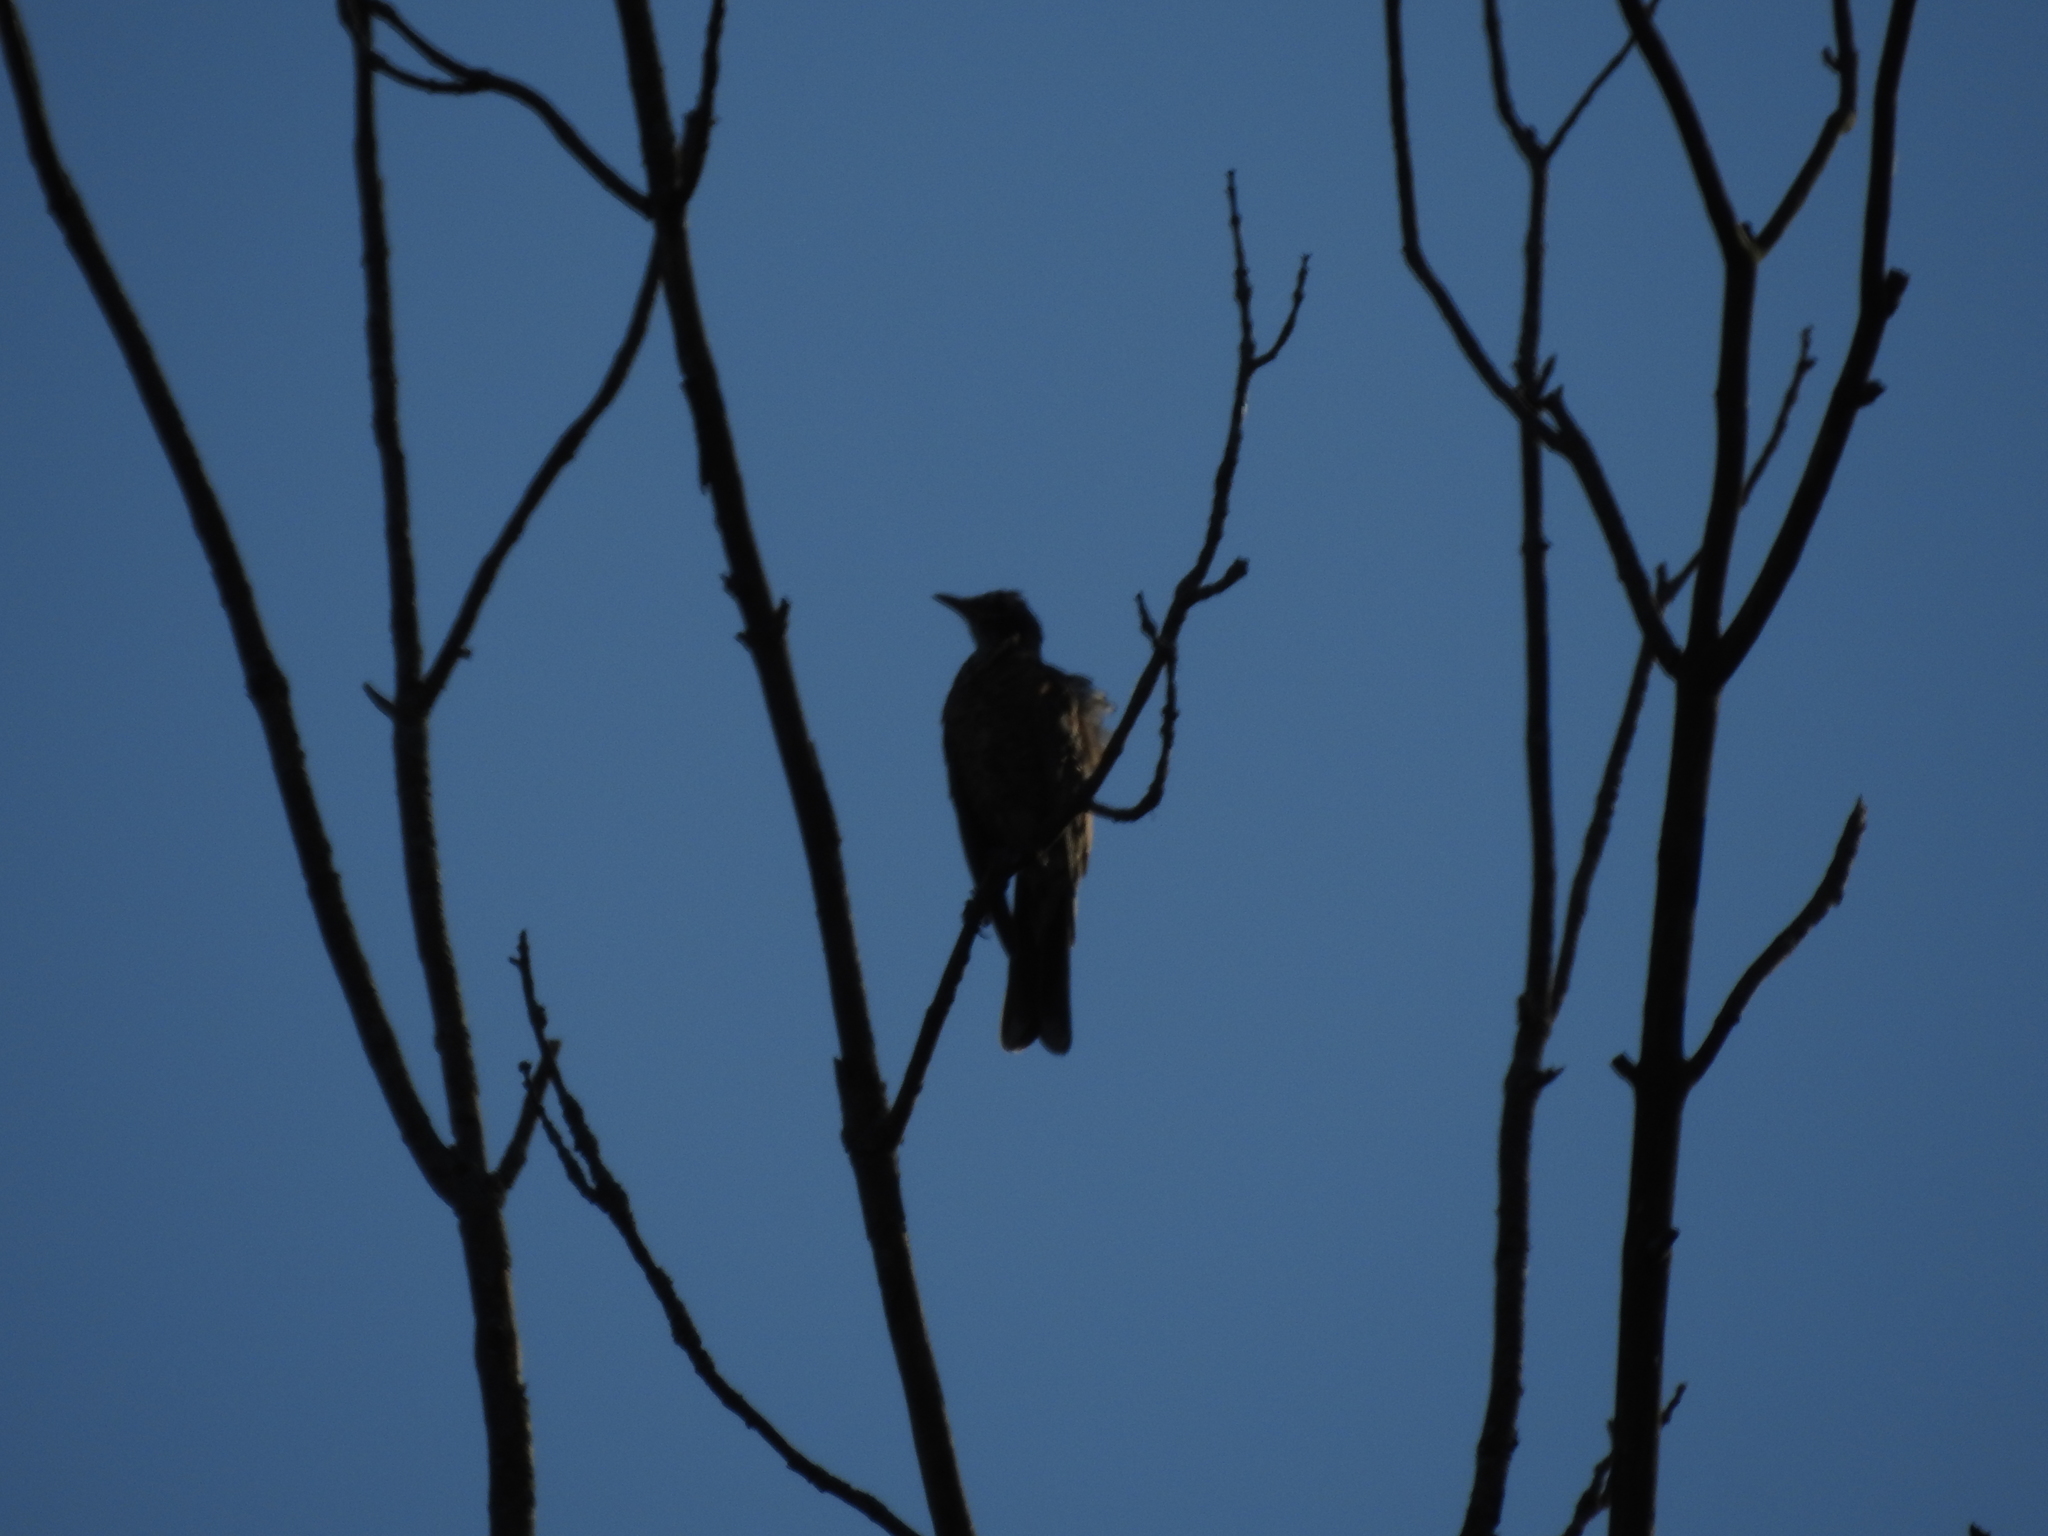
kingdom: Animalia
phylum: Chordata
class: Aves
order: Passeriformes
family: Turdidae
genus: Turdus
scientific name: Turdus migratorius
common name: American robin
